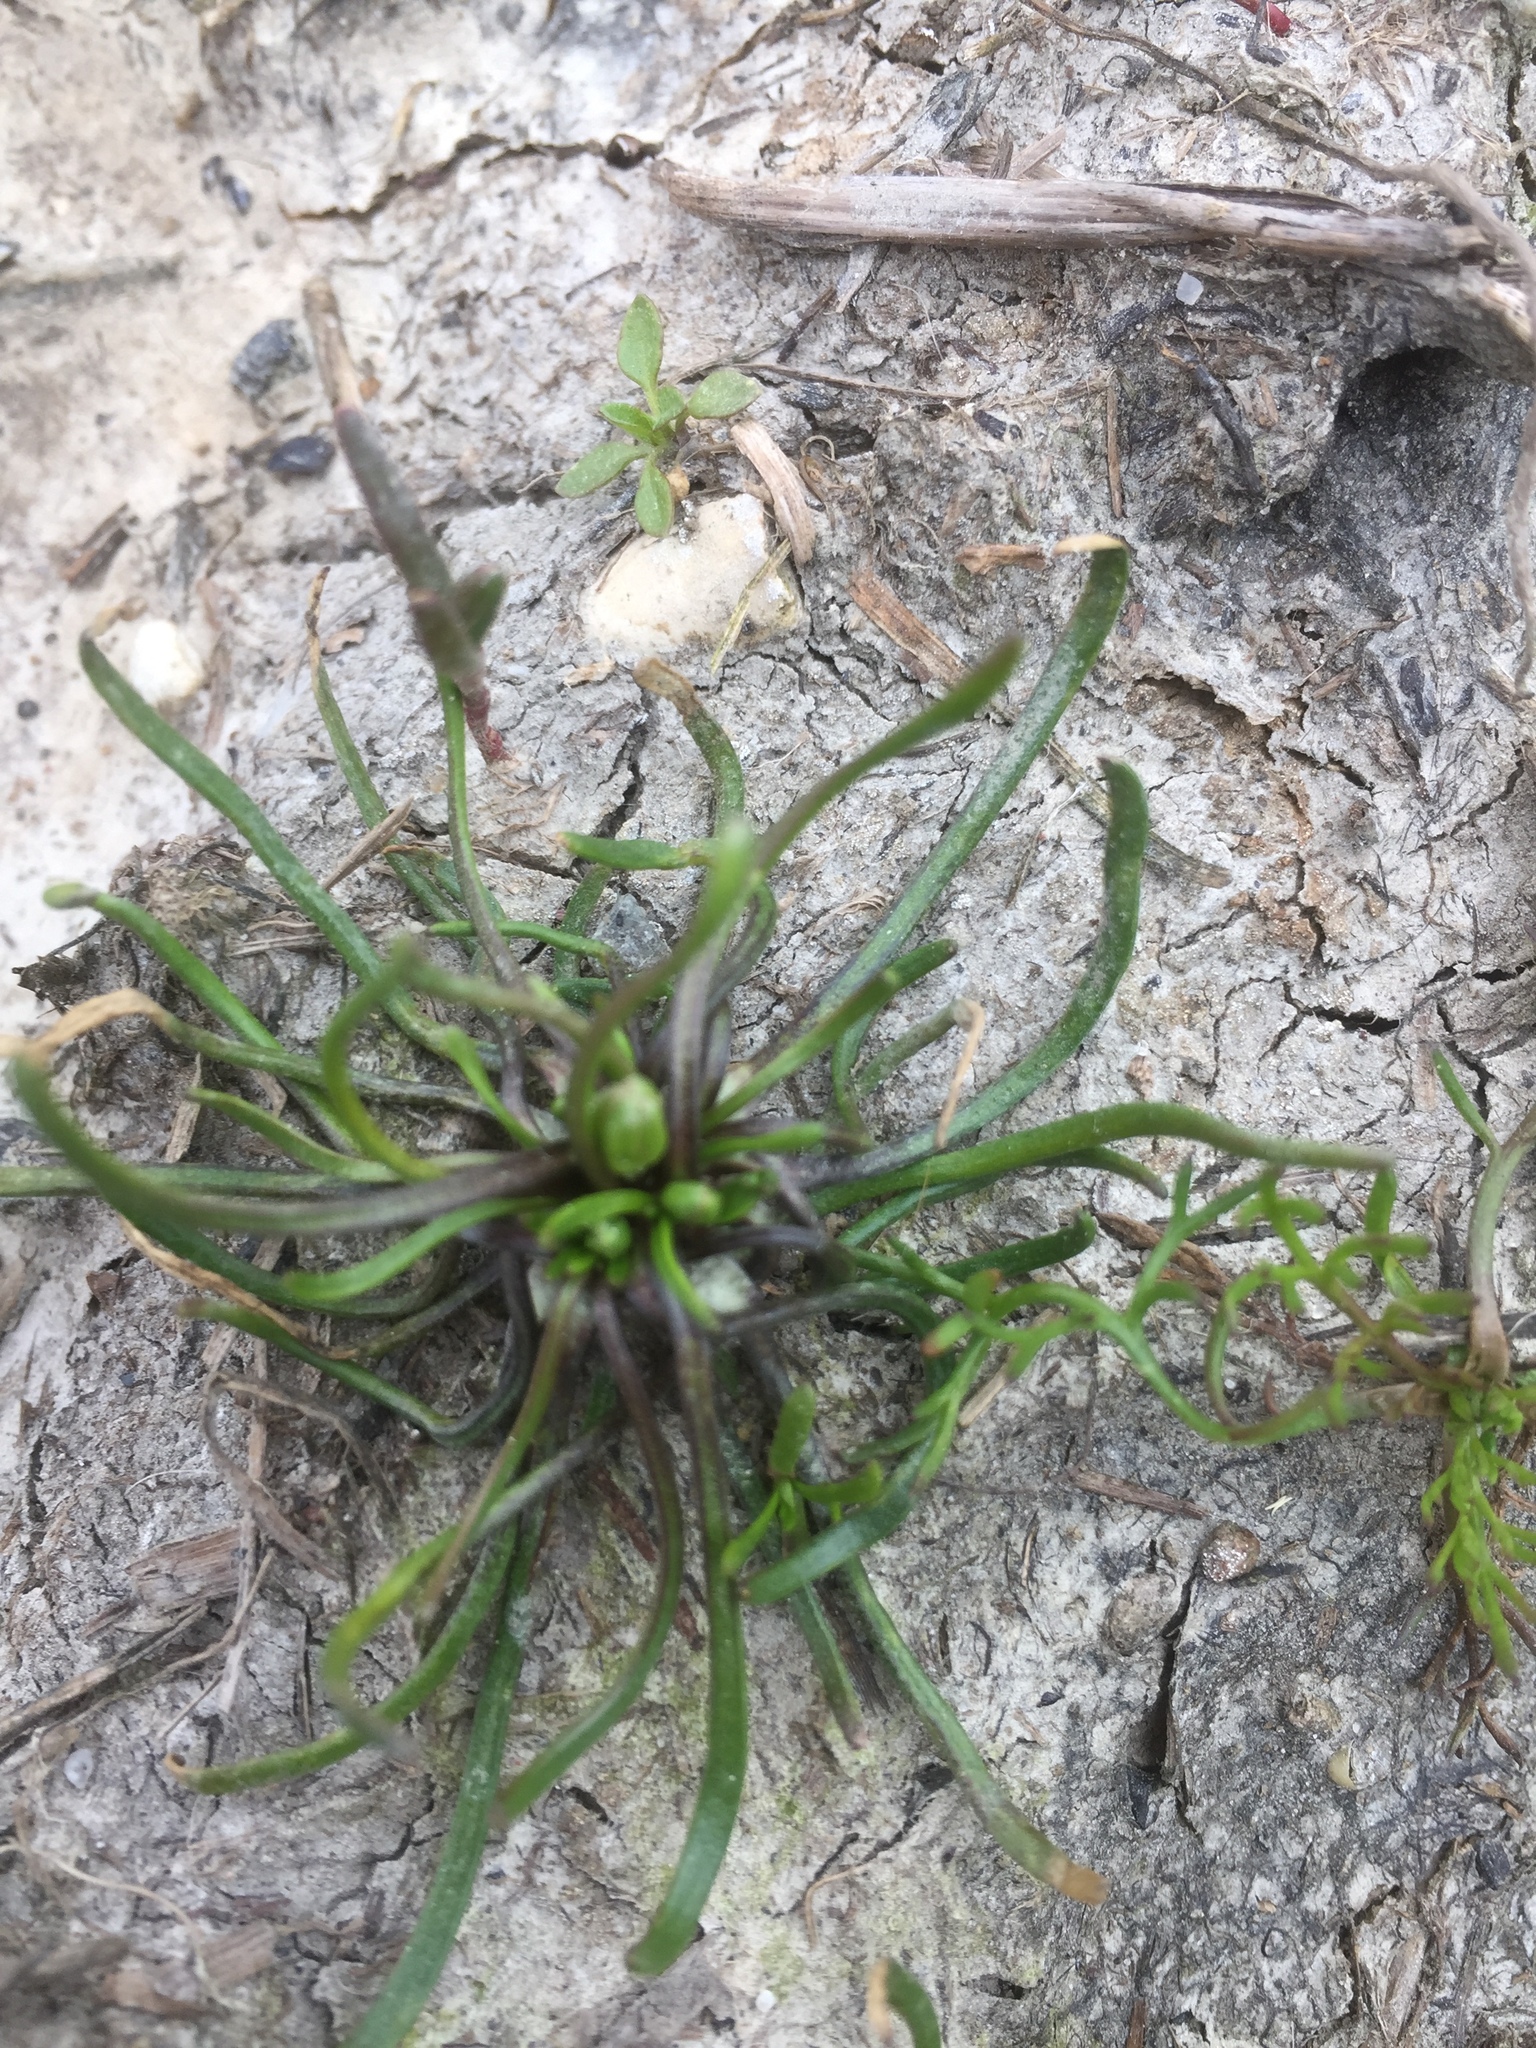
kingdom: Plantae
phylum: Tracheophyta
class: Magnoliopsida
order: Ranunculales
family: Ranunculaceae
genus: Myosurus
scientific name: Myosurus minimus
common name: Mousetail
